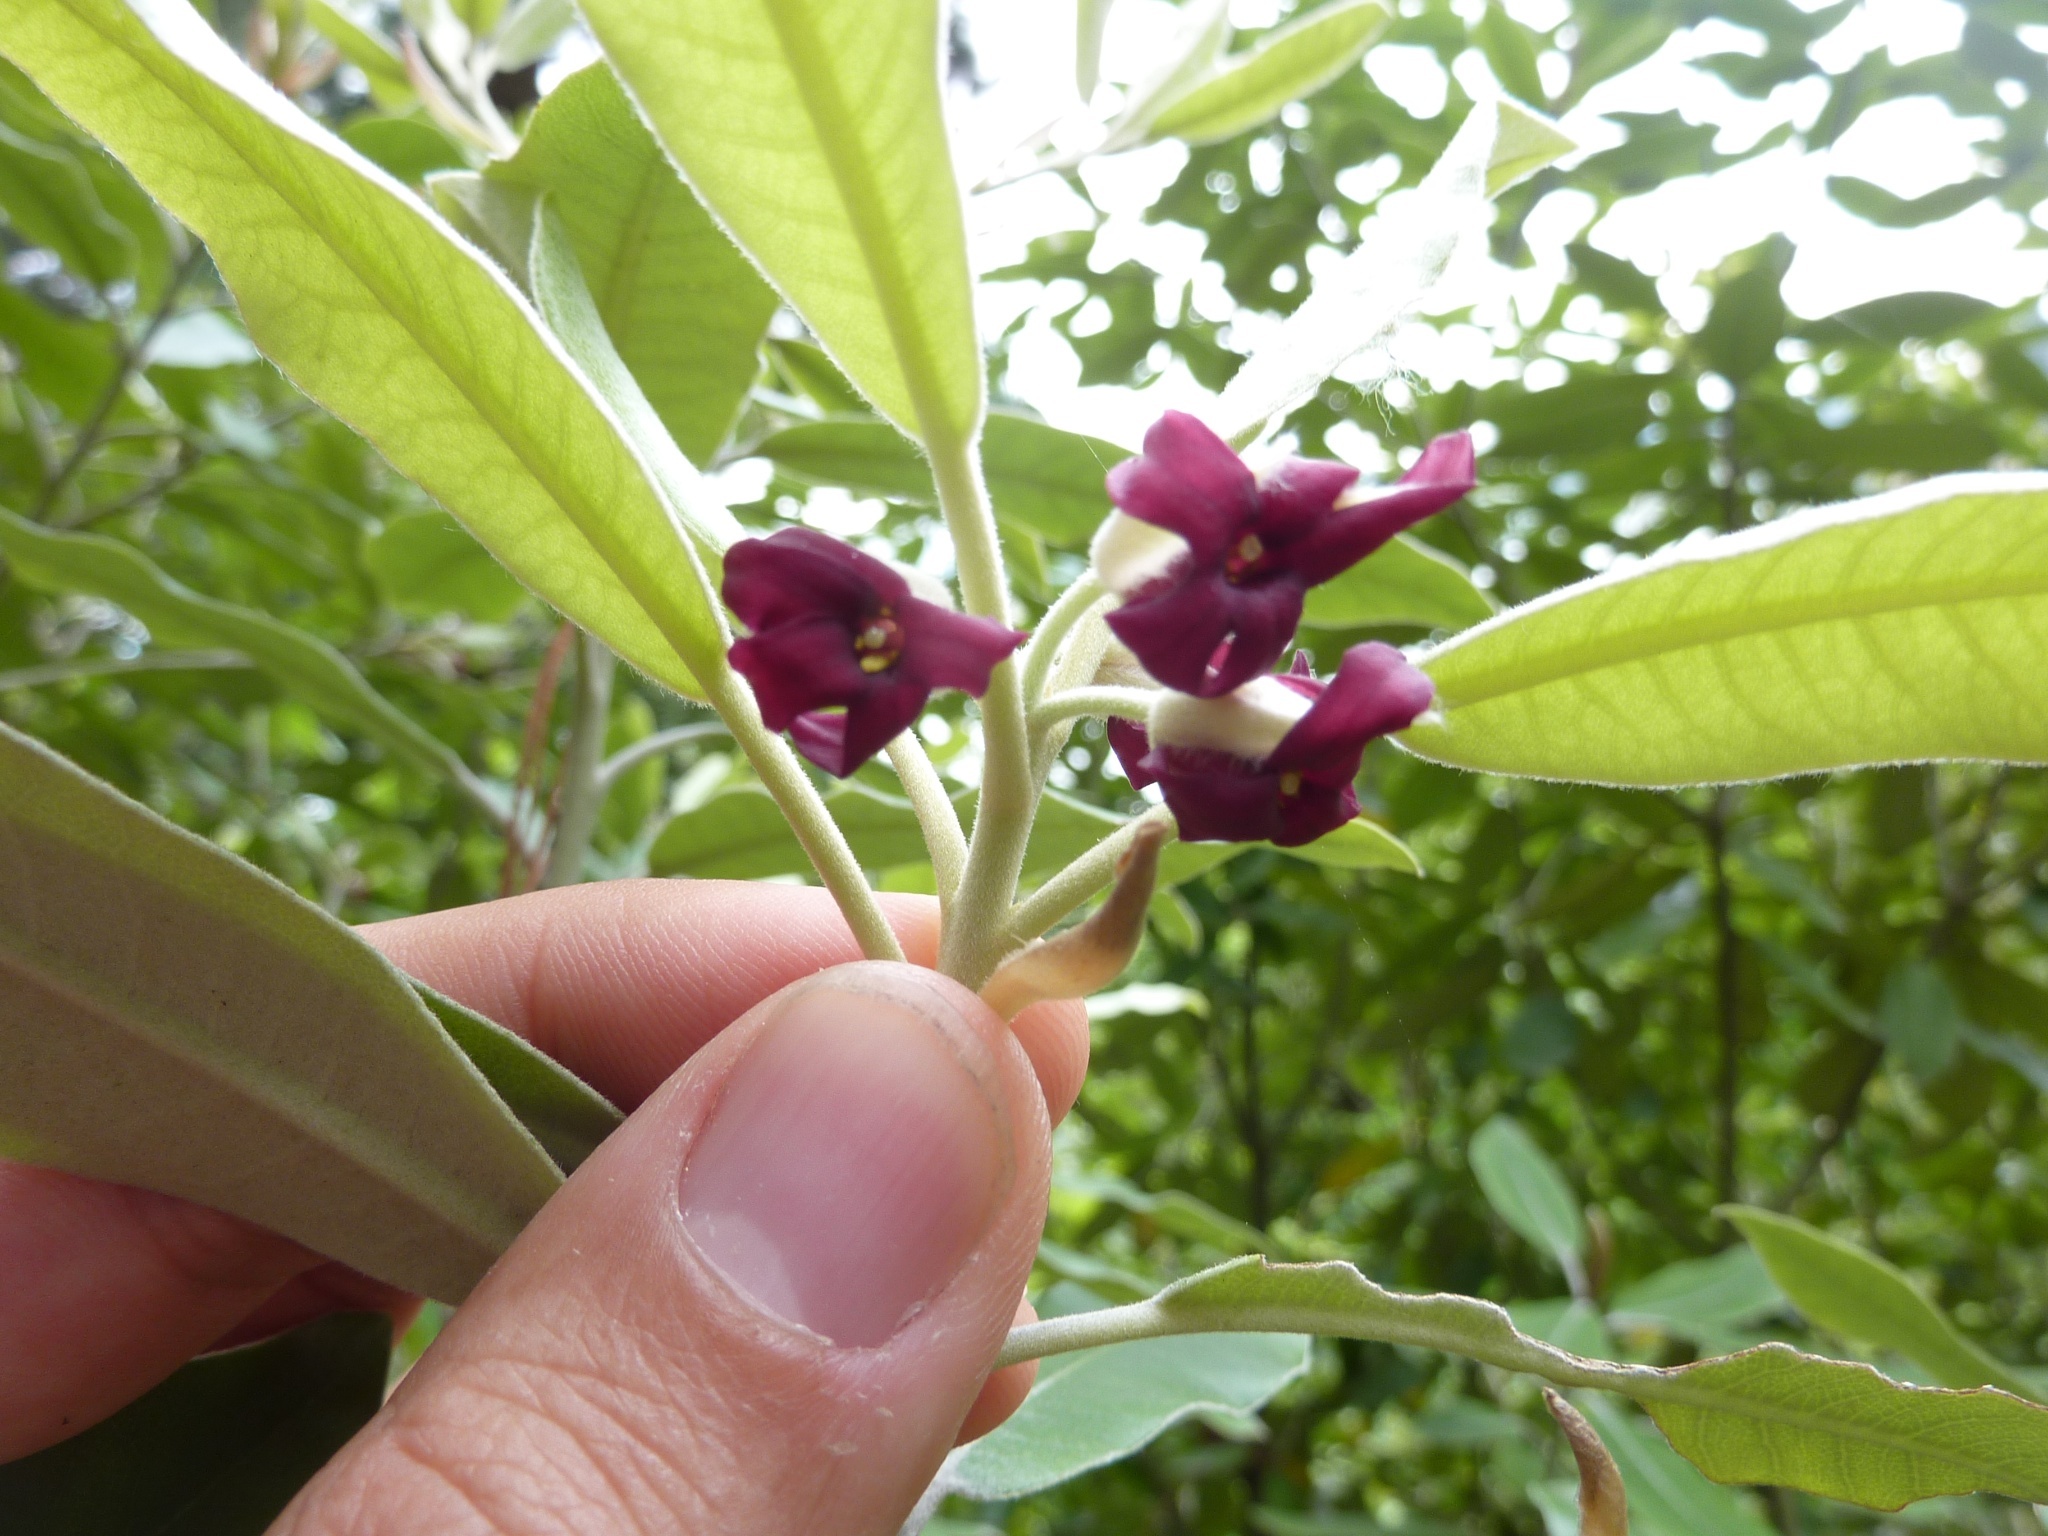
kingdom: Plantae
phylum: Tracheophyta
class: Magnoliopsida
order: Apiales
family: Pittosporaceae
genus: Pittosporum
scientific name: Pittosporum ralphii
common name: Ralph's desertwillow
